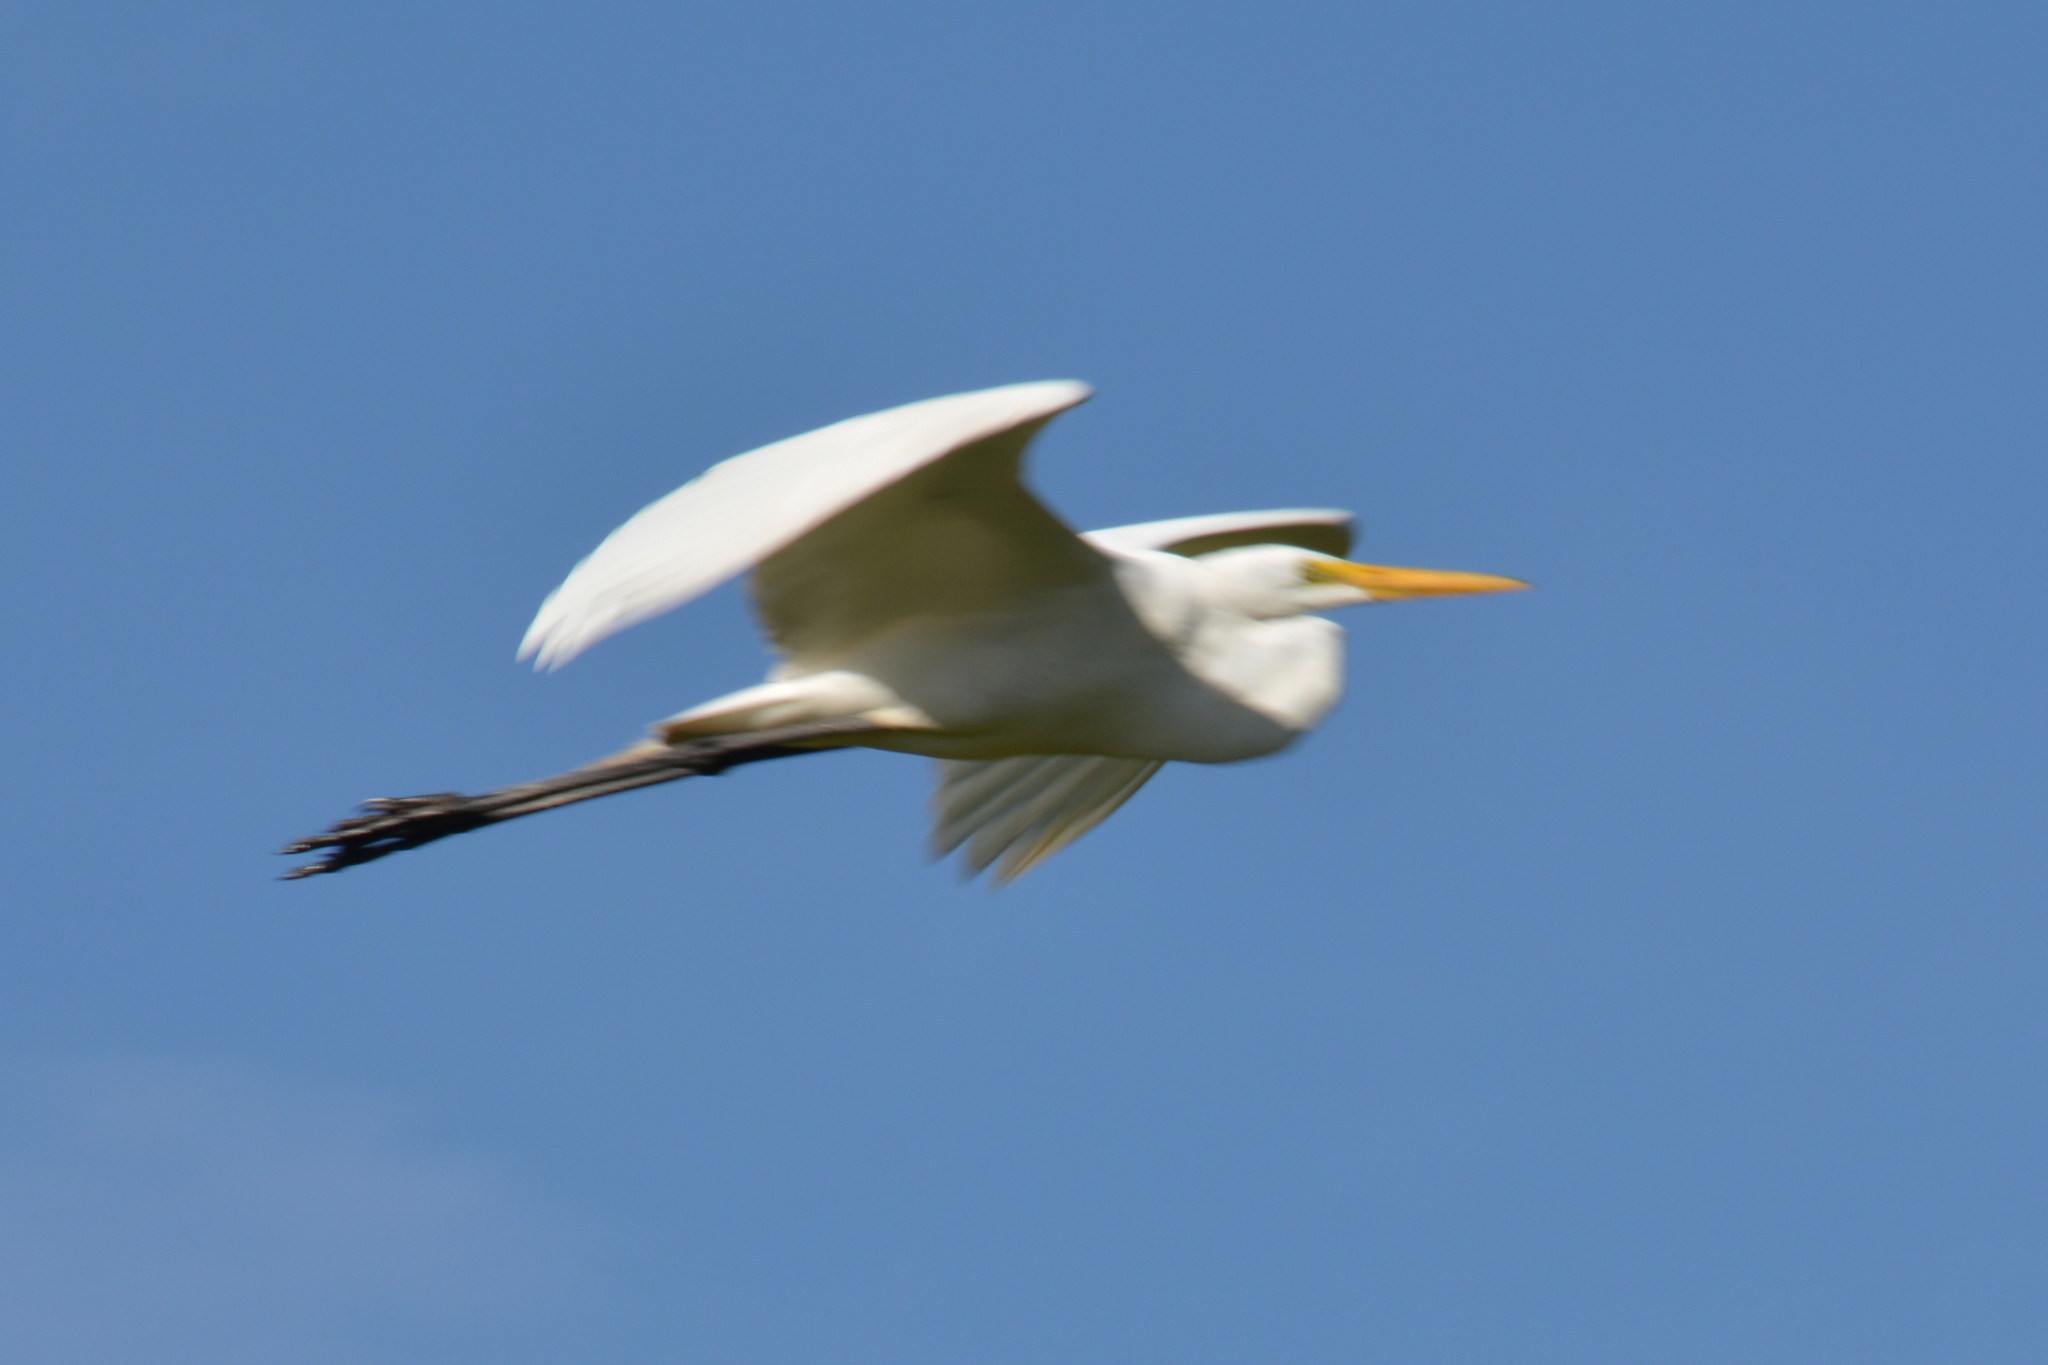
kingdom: Animalia
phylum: Chordata
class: Aves
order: Pelecaniformes
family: Ardeidae
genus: Ardea
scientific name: Ardea alba
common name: Great egret
